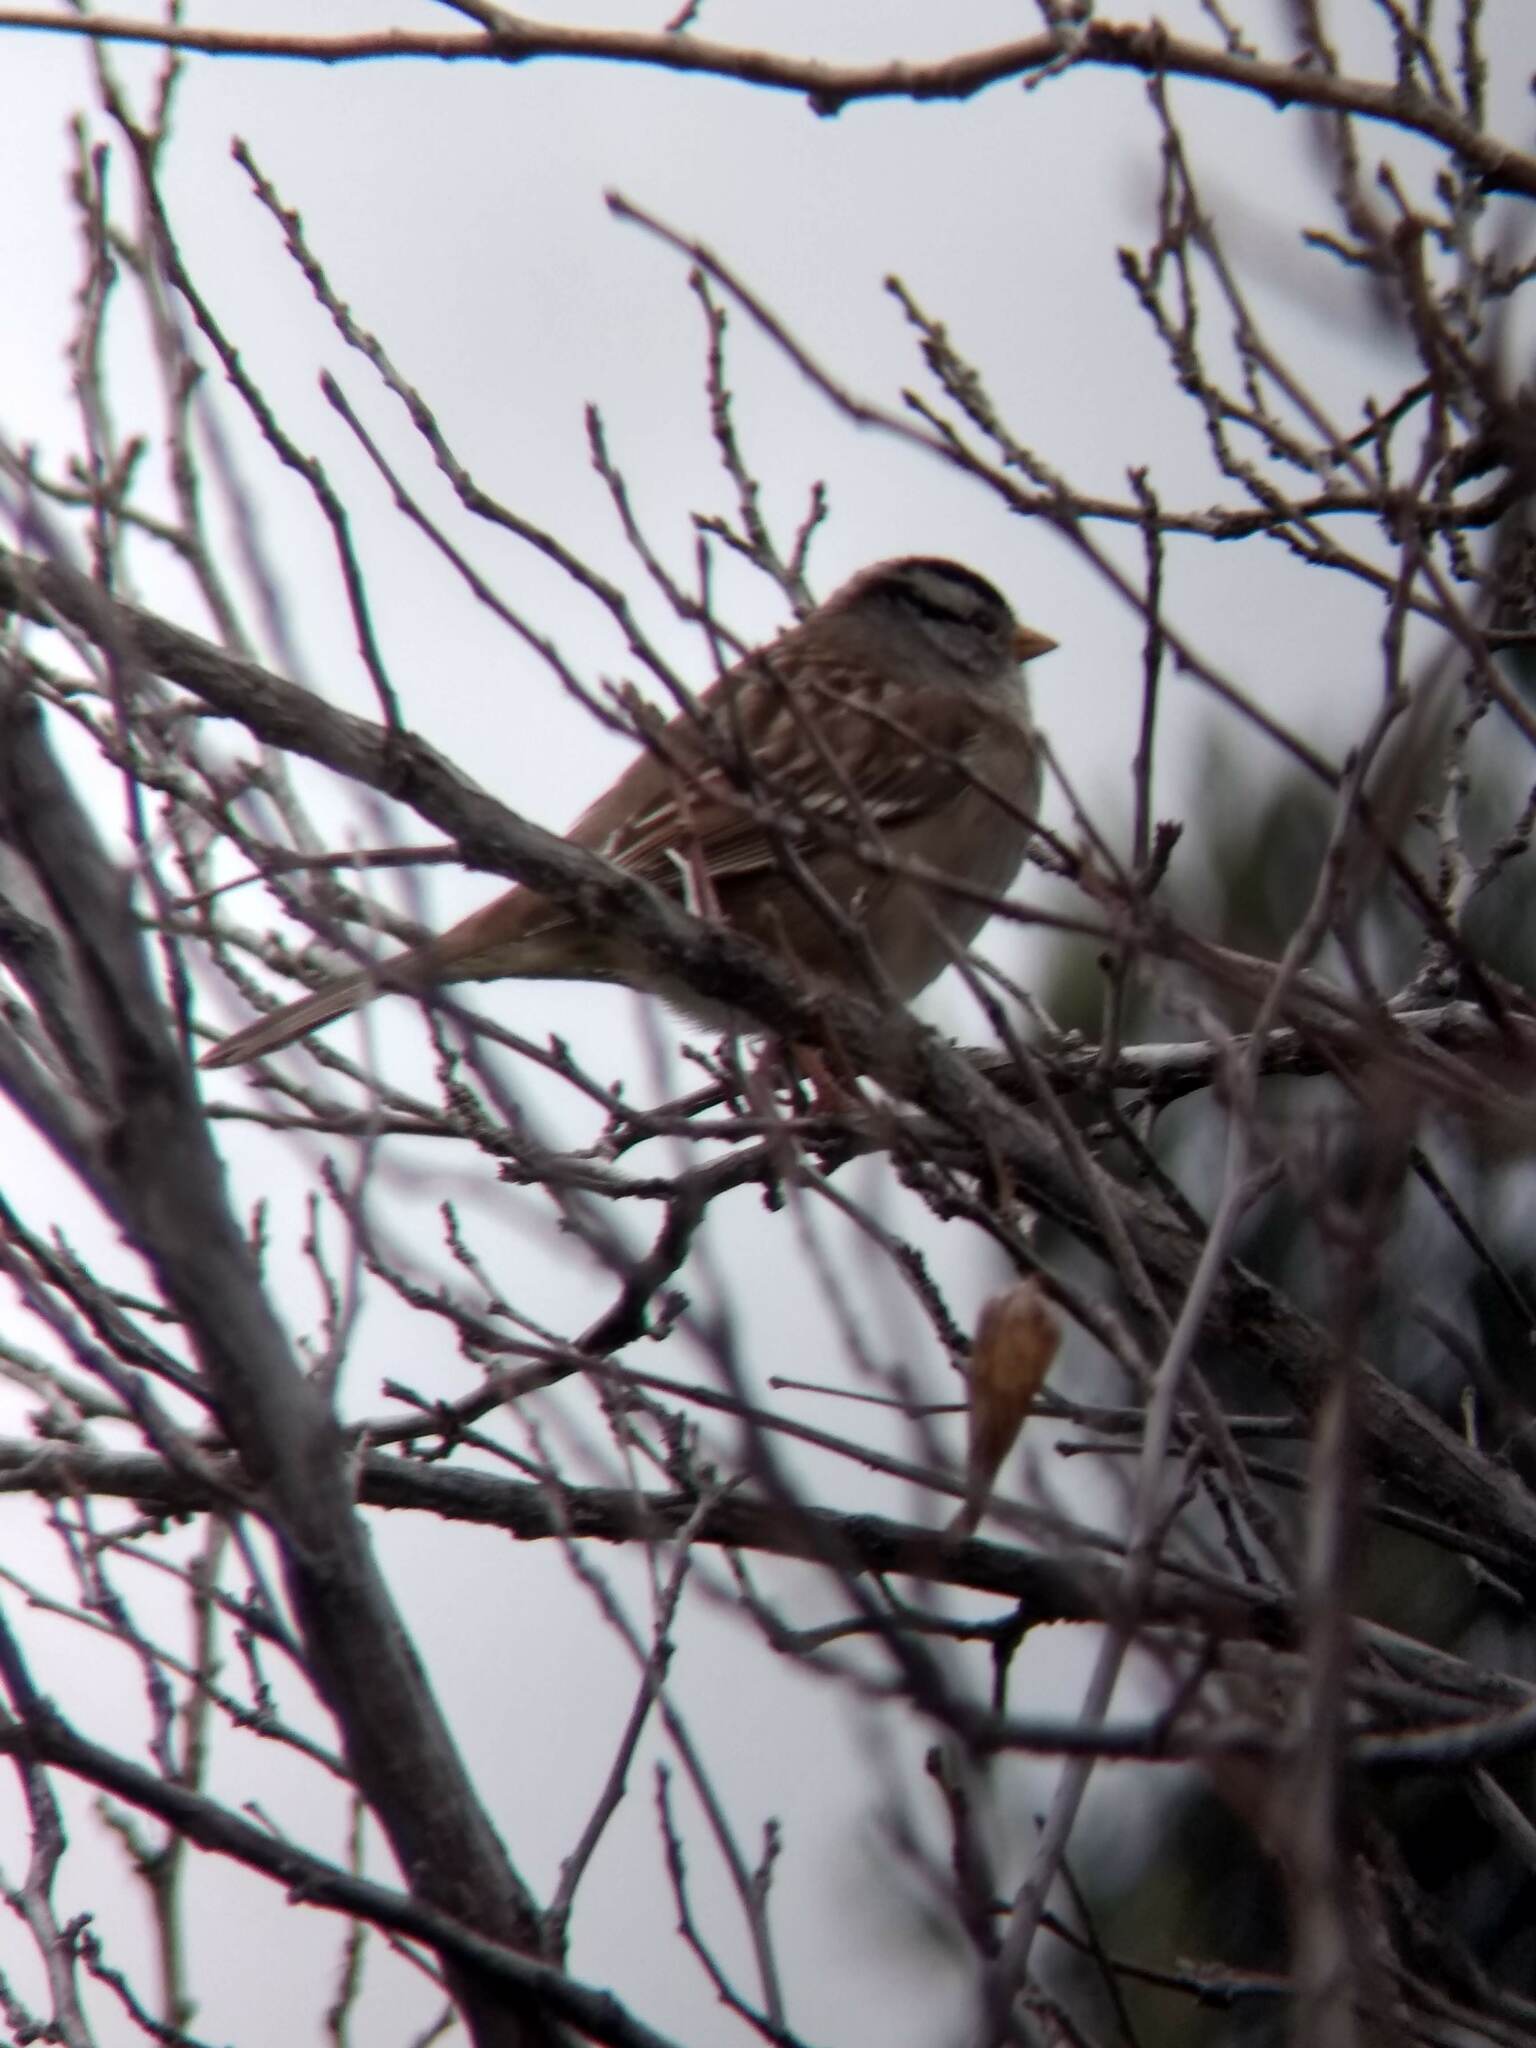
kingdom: Animalia
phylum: Chordata
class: Aves
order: Passeriformes
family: Passerellidae
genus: Zonotrichia
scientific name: Zonotrichia leucophrys
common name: White-crowned sparrow
